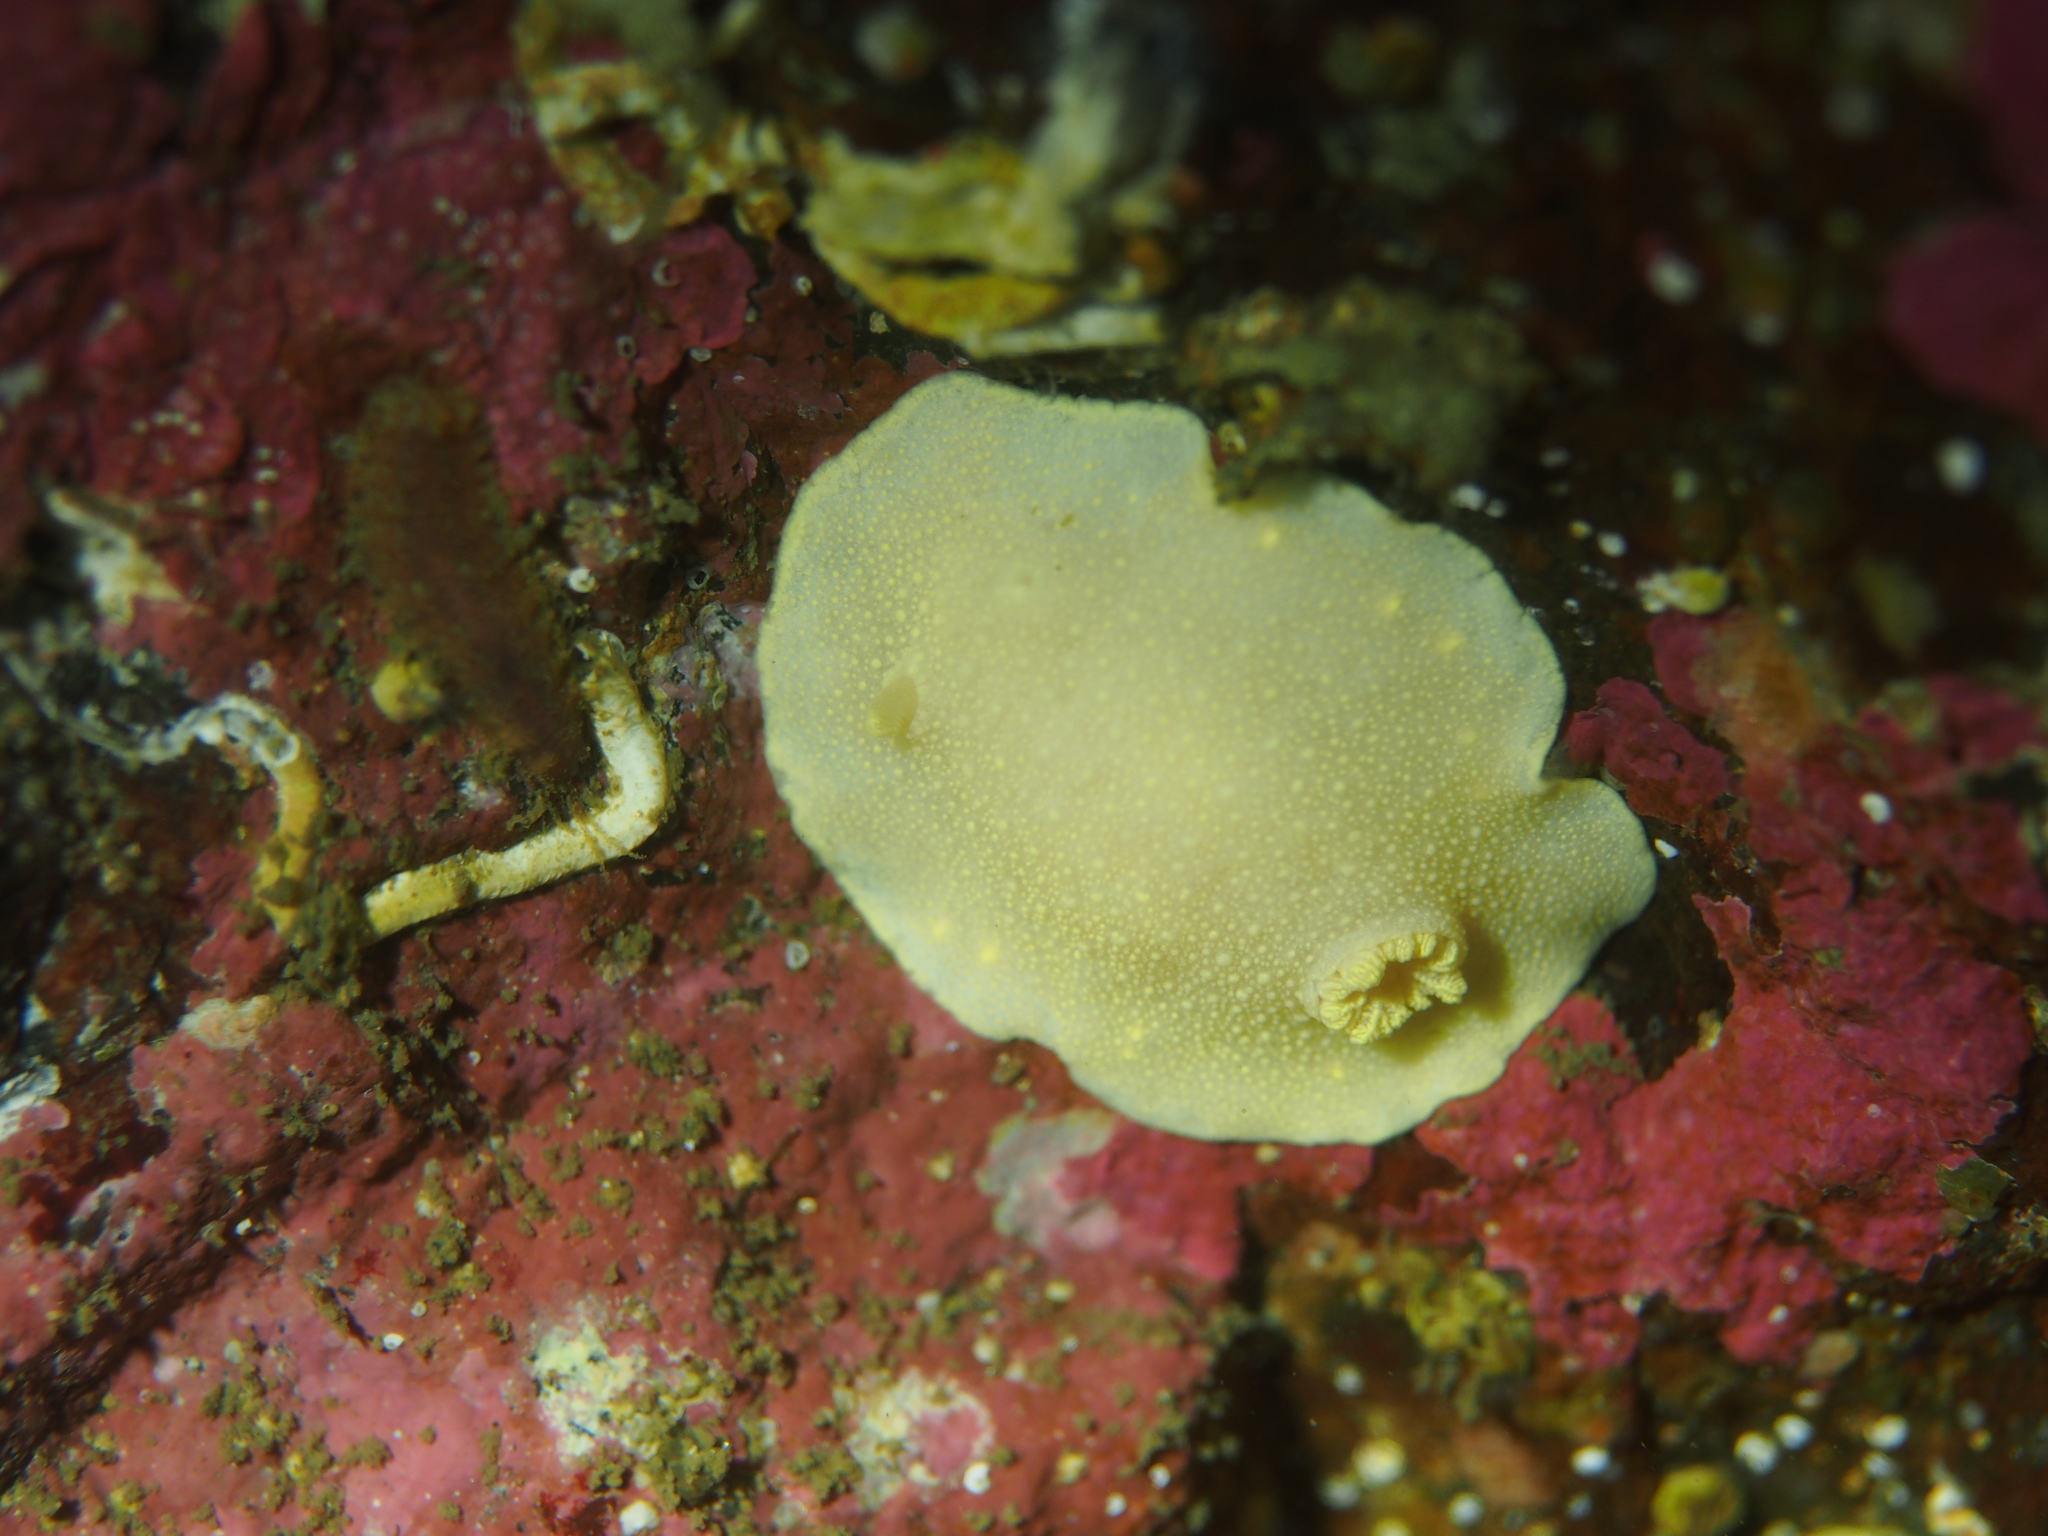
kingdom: Animalia
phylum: Mollusca
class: Gastropoda
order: Nudibranchia
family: Cadlinidae
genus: Cadlina
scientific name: Cadlina laevis
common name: White atlantic cadlina
